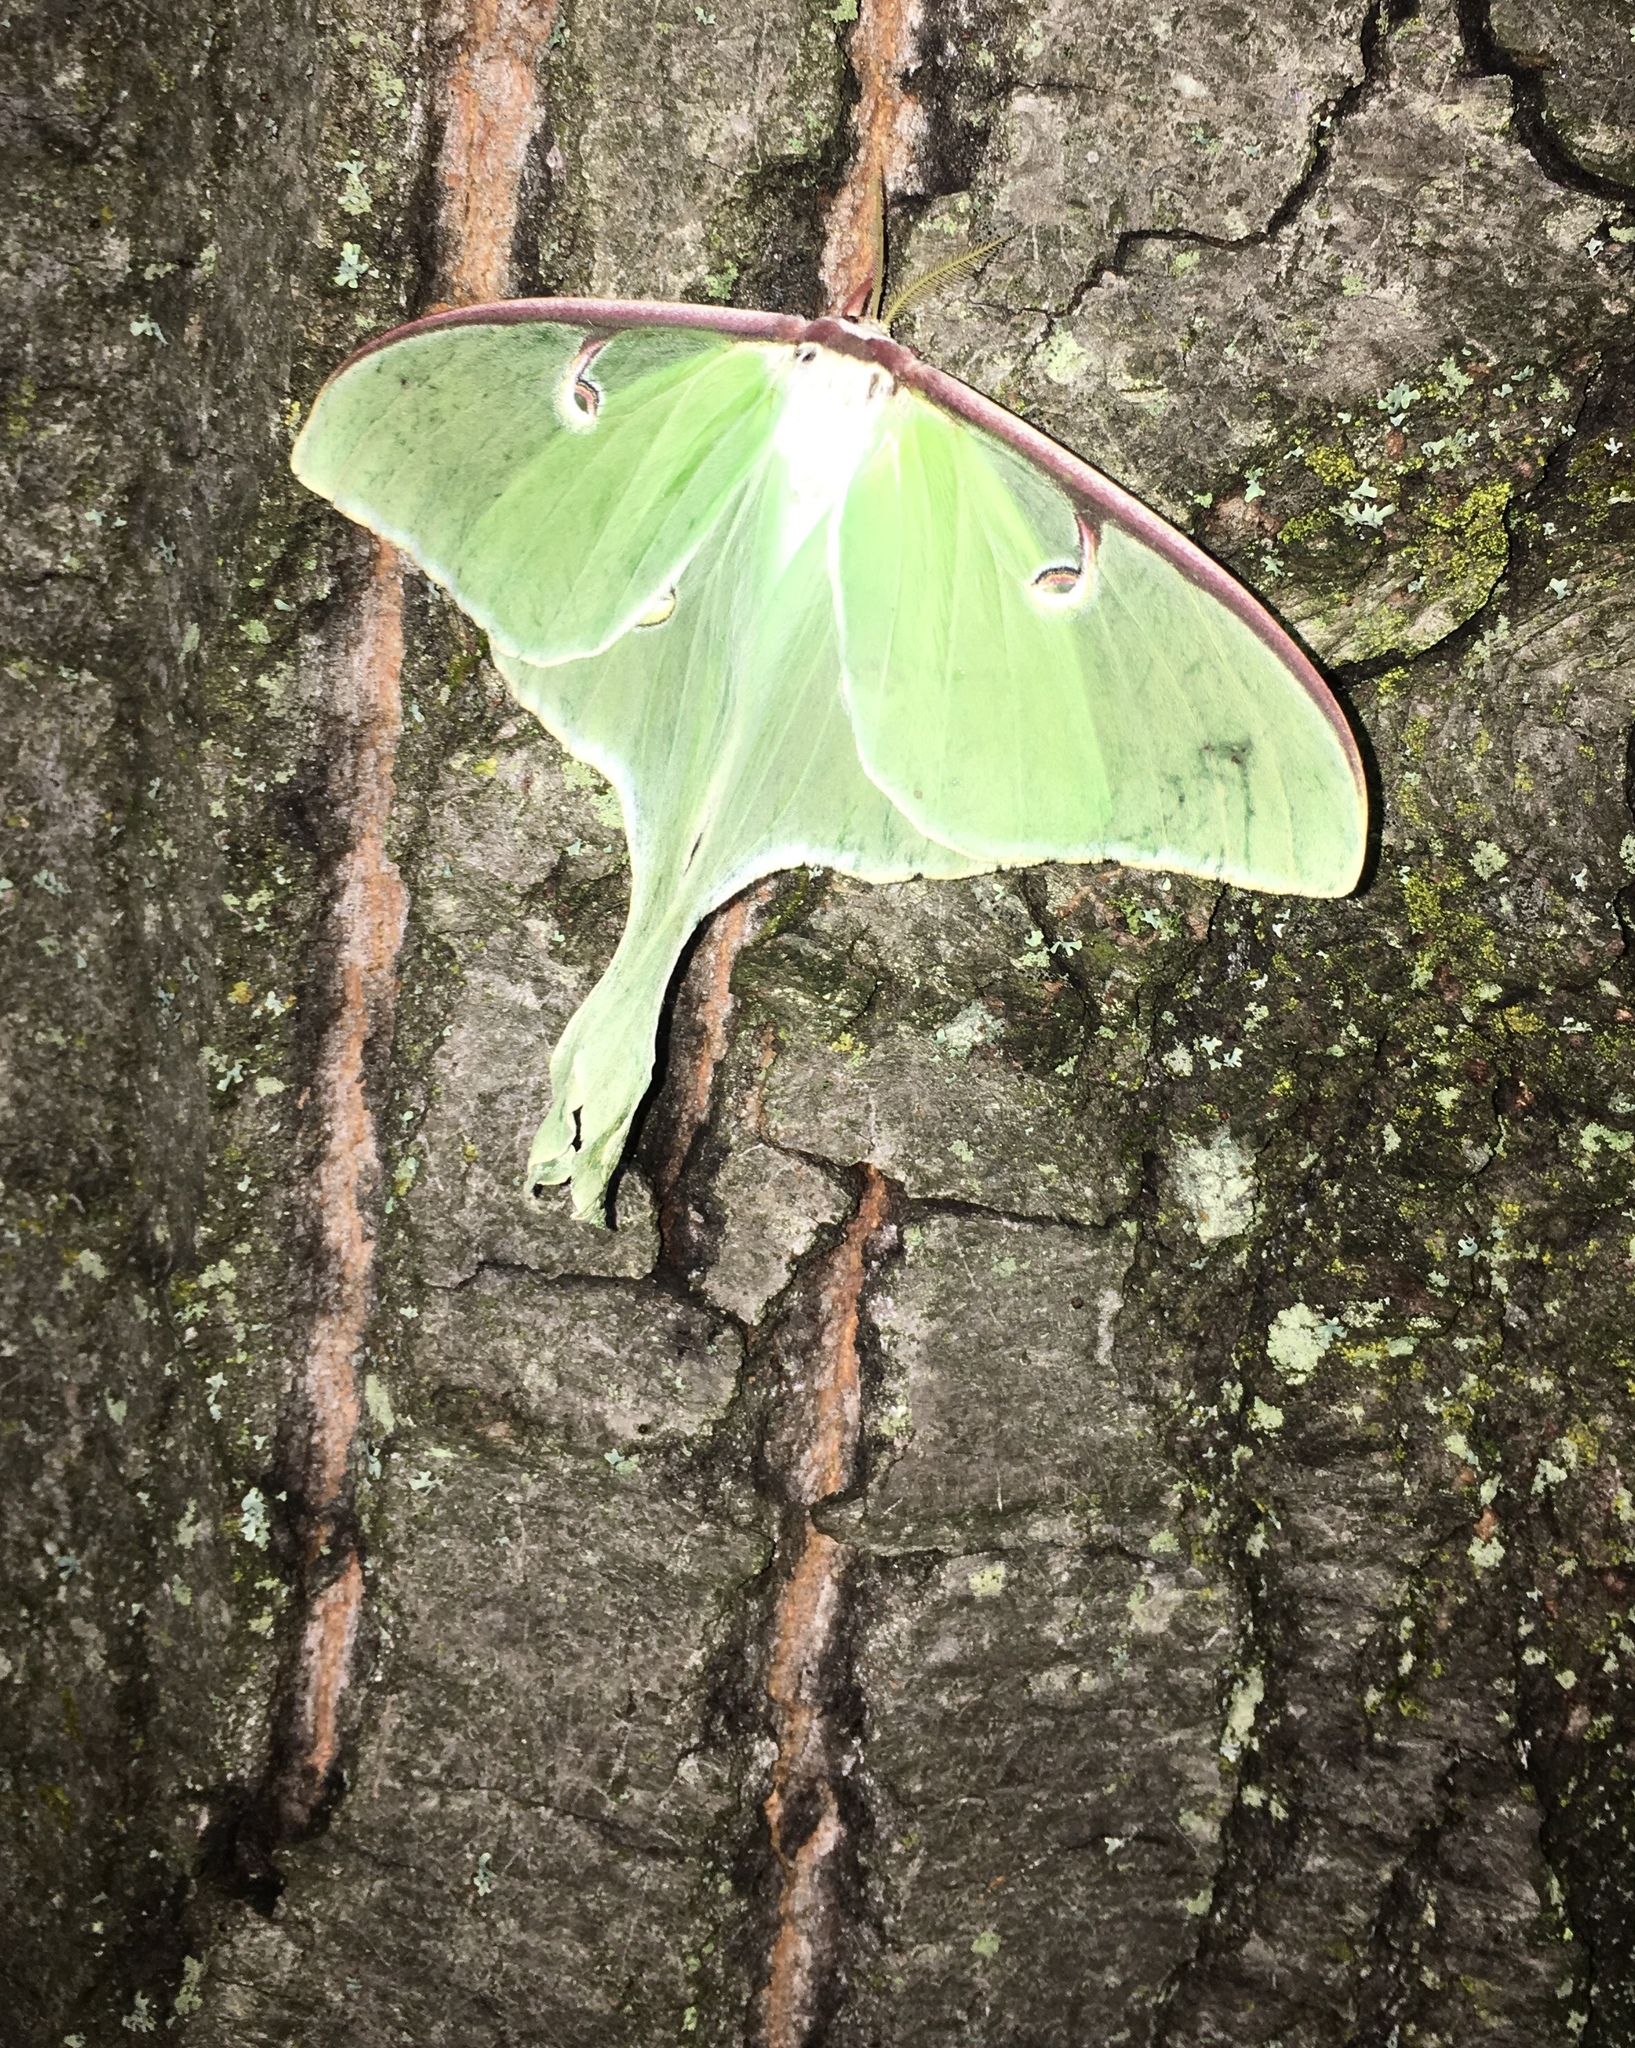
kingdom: Animalia
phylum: Arthropoda
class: Insecta
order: Lepidoptera
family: Saturniidae
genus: Actias
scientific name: Actias luna
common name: Luna moth
